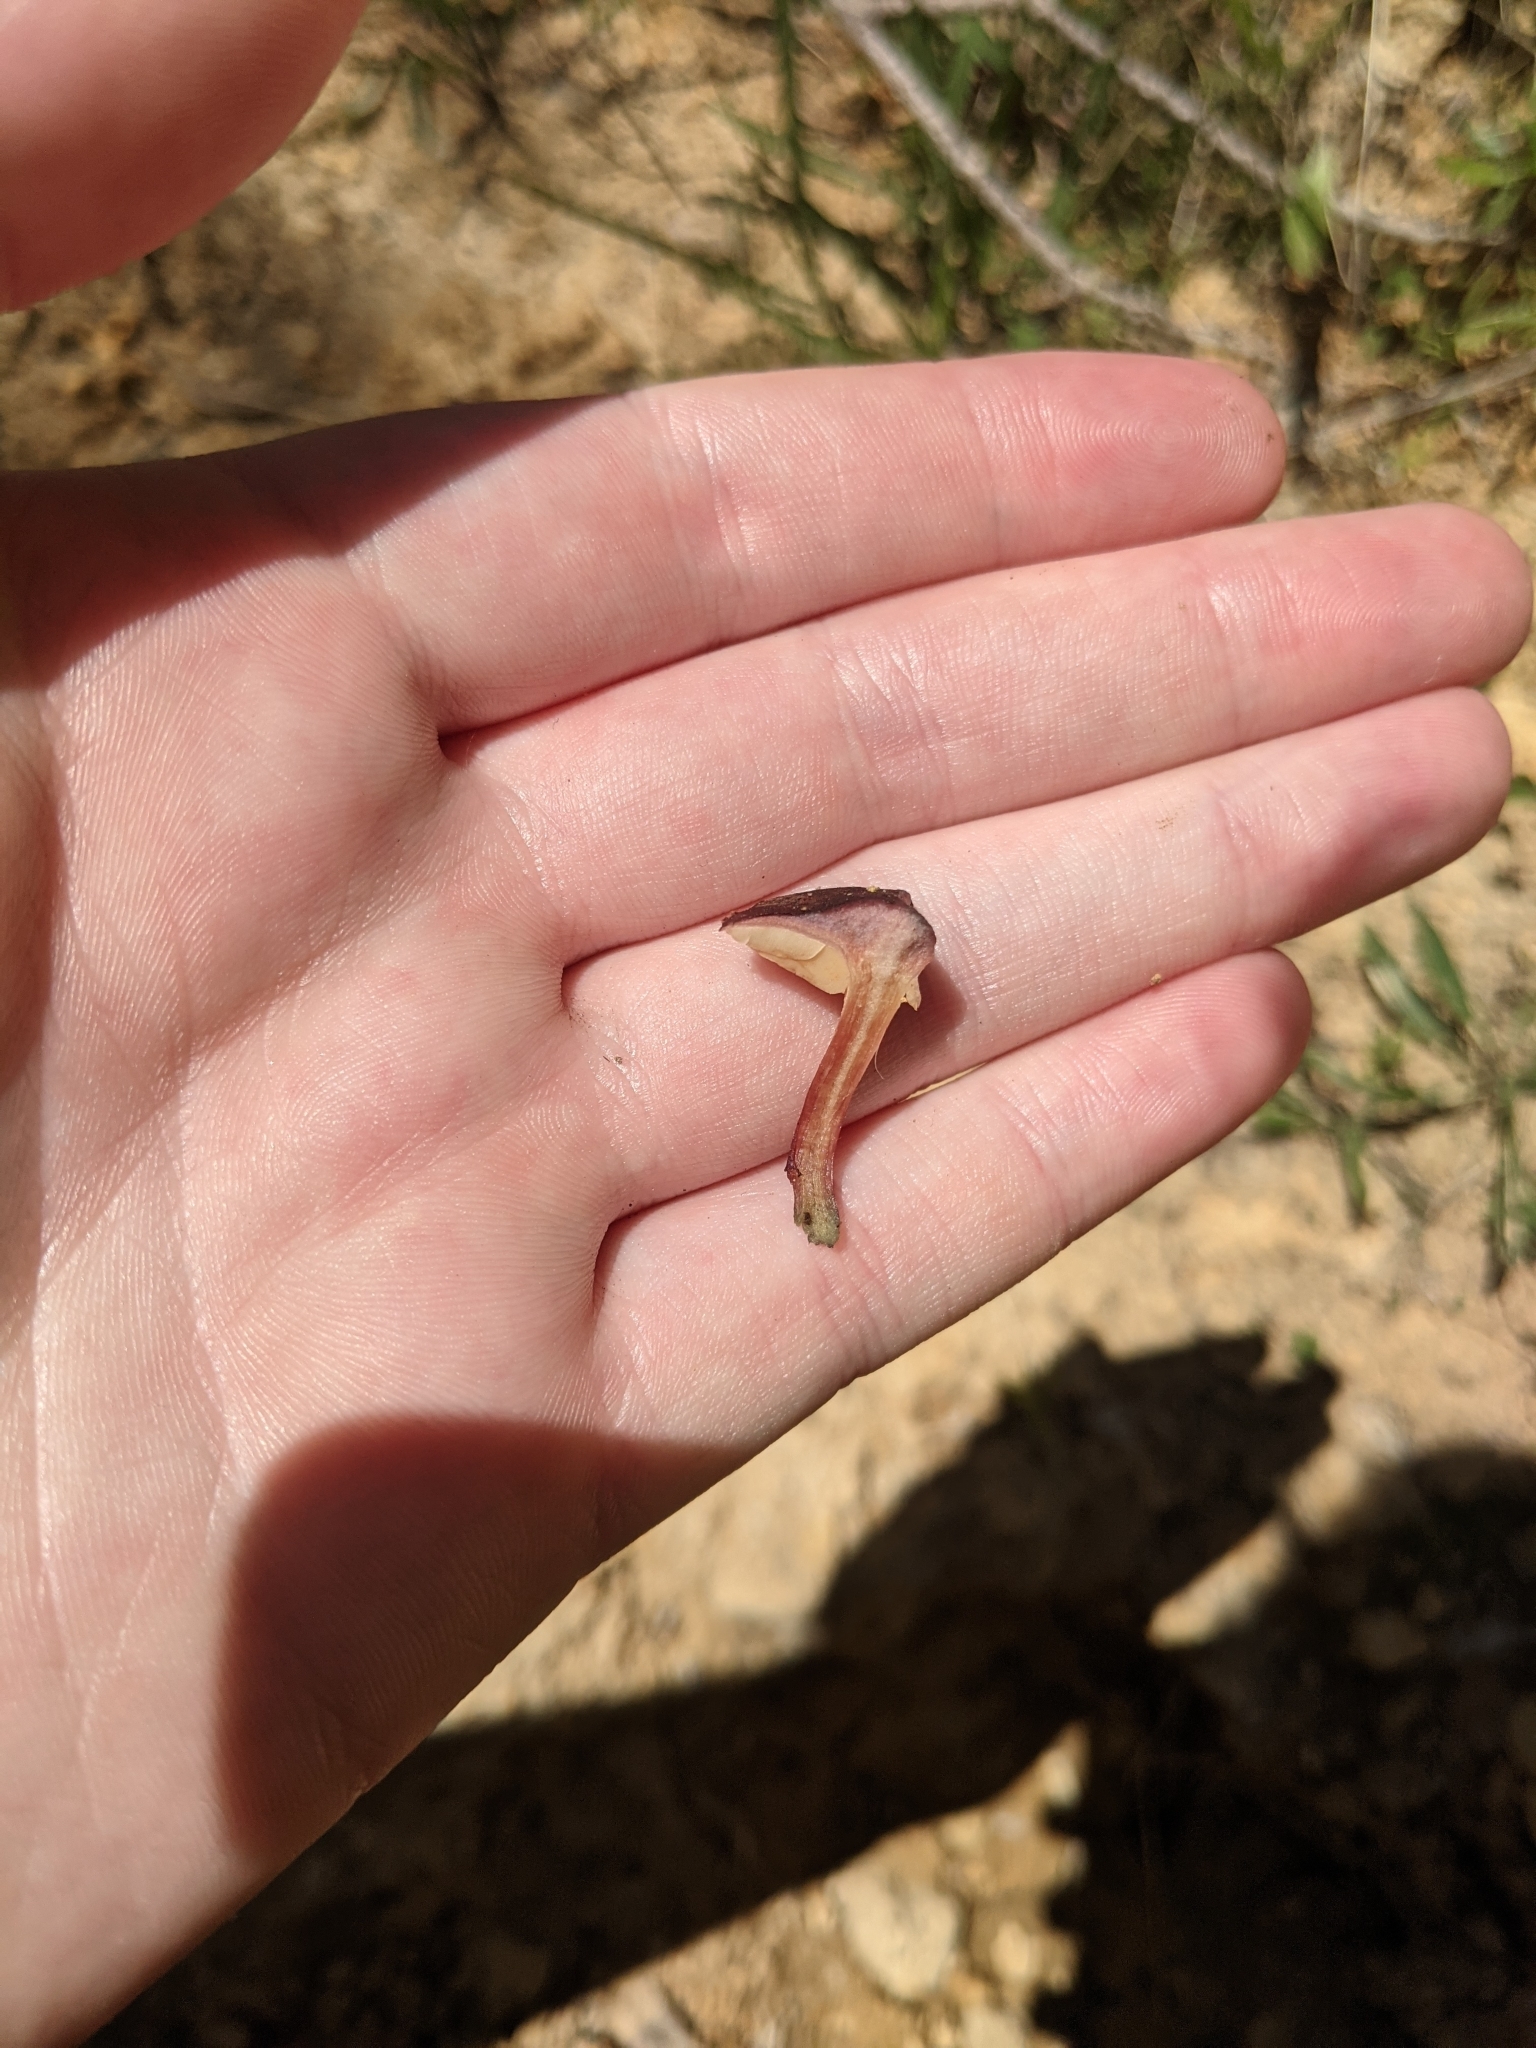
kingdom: Fungi
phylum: Basidiomycota
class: Agaricomycetes
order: Agaricales
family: Hymenogastraceae
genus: Gymnopilus
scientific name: Gymnopilus purpuratus
